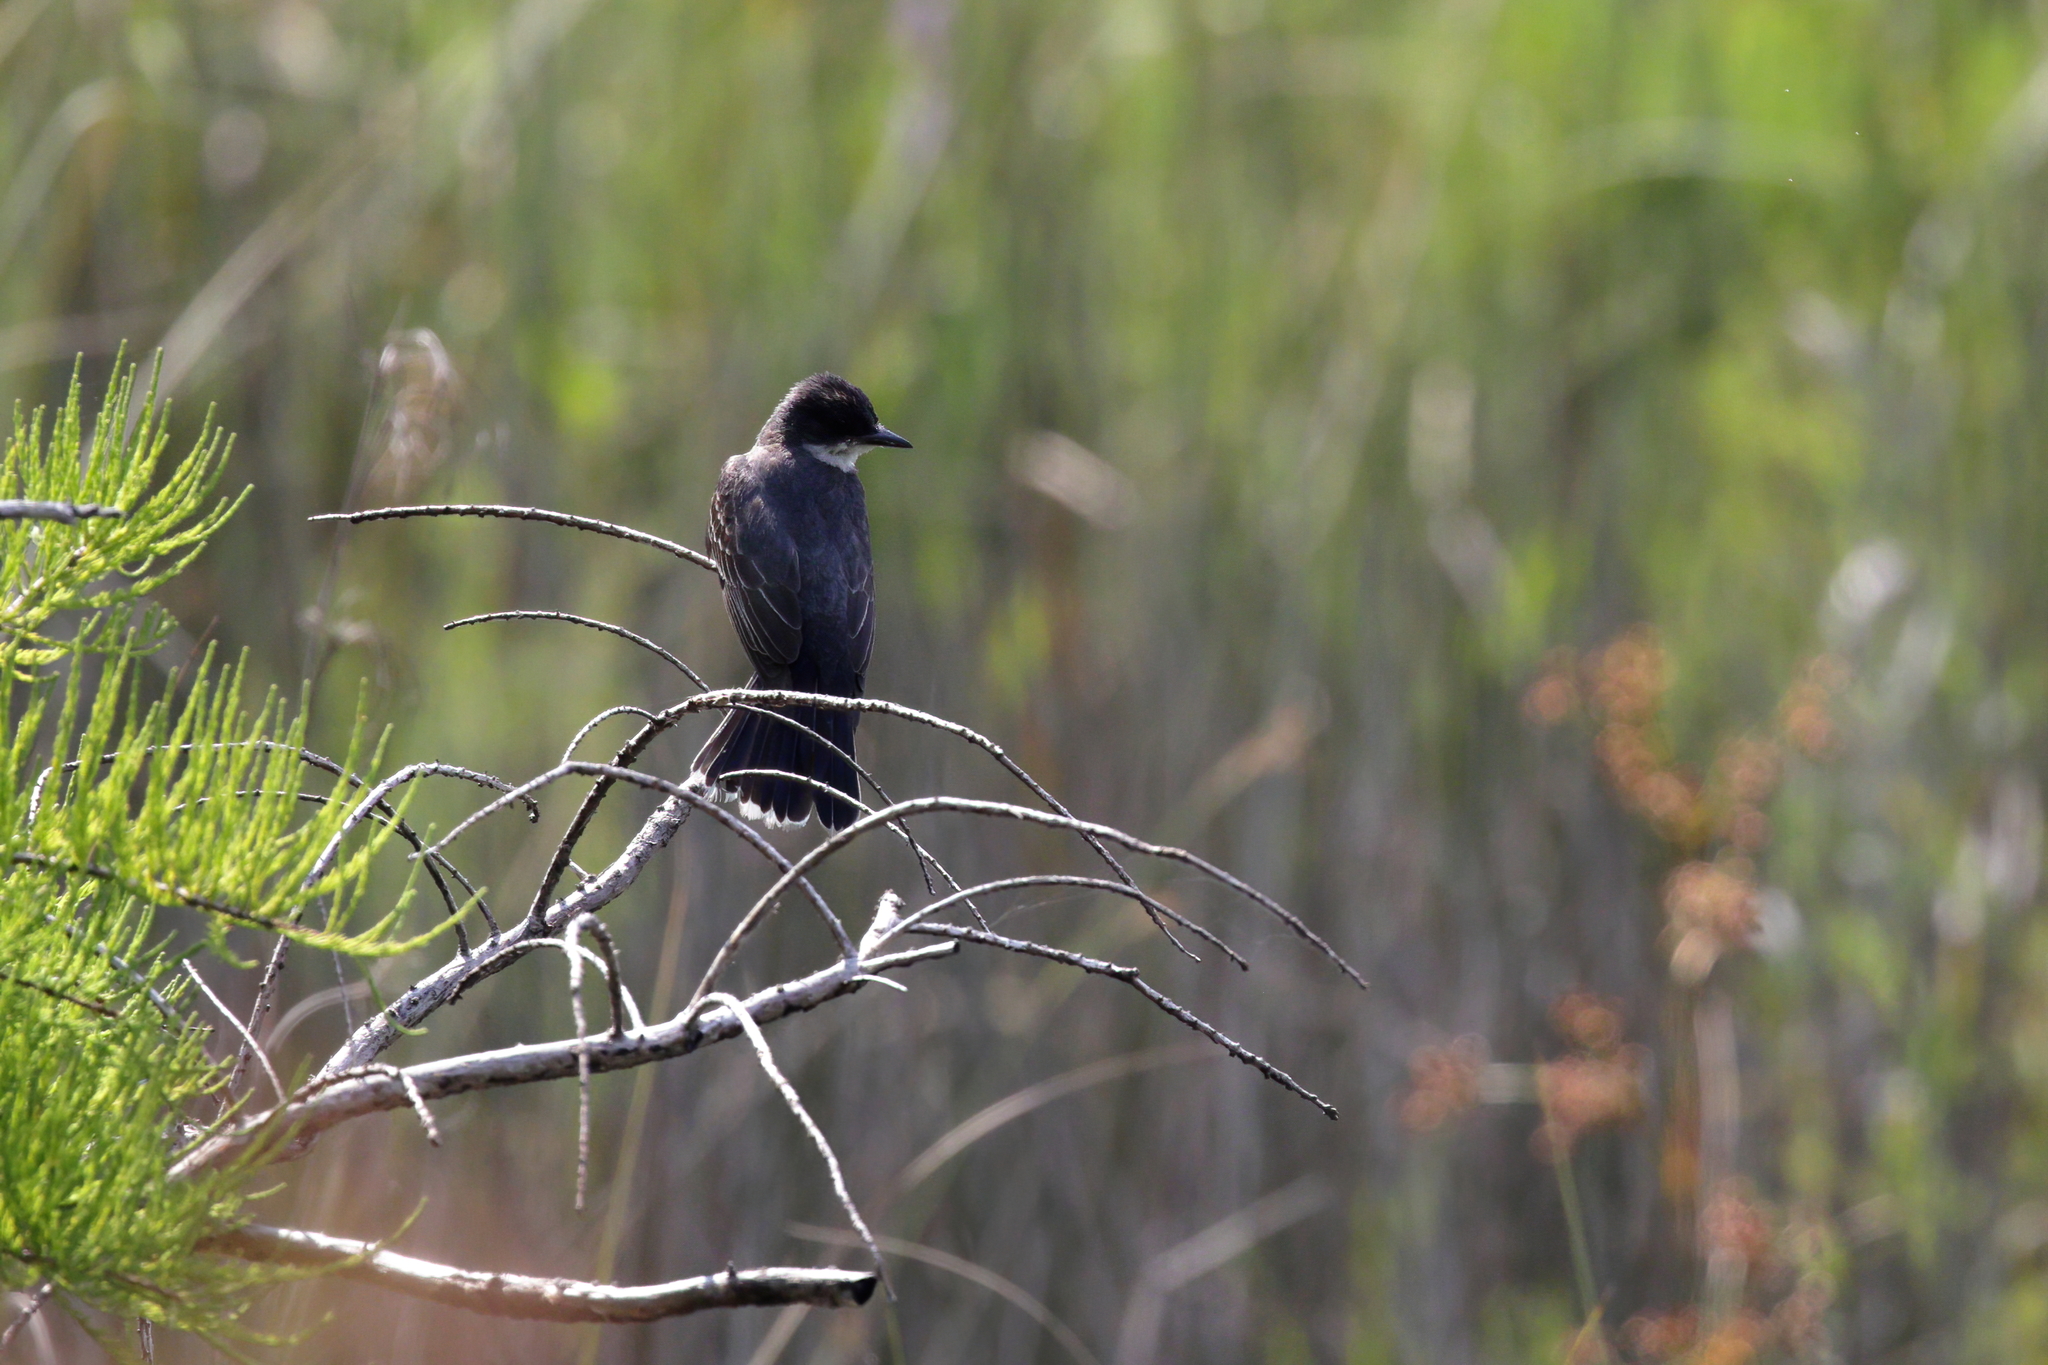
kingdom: Animalia
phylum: Chordata
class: Aves
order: Passeriformes
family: Tyrannidae
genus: Tyrannus
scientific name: Tyrannus tyrannus
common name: Eastern kingbird
